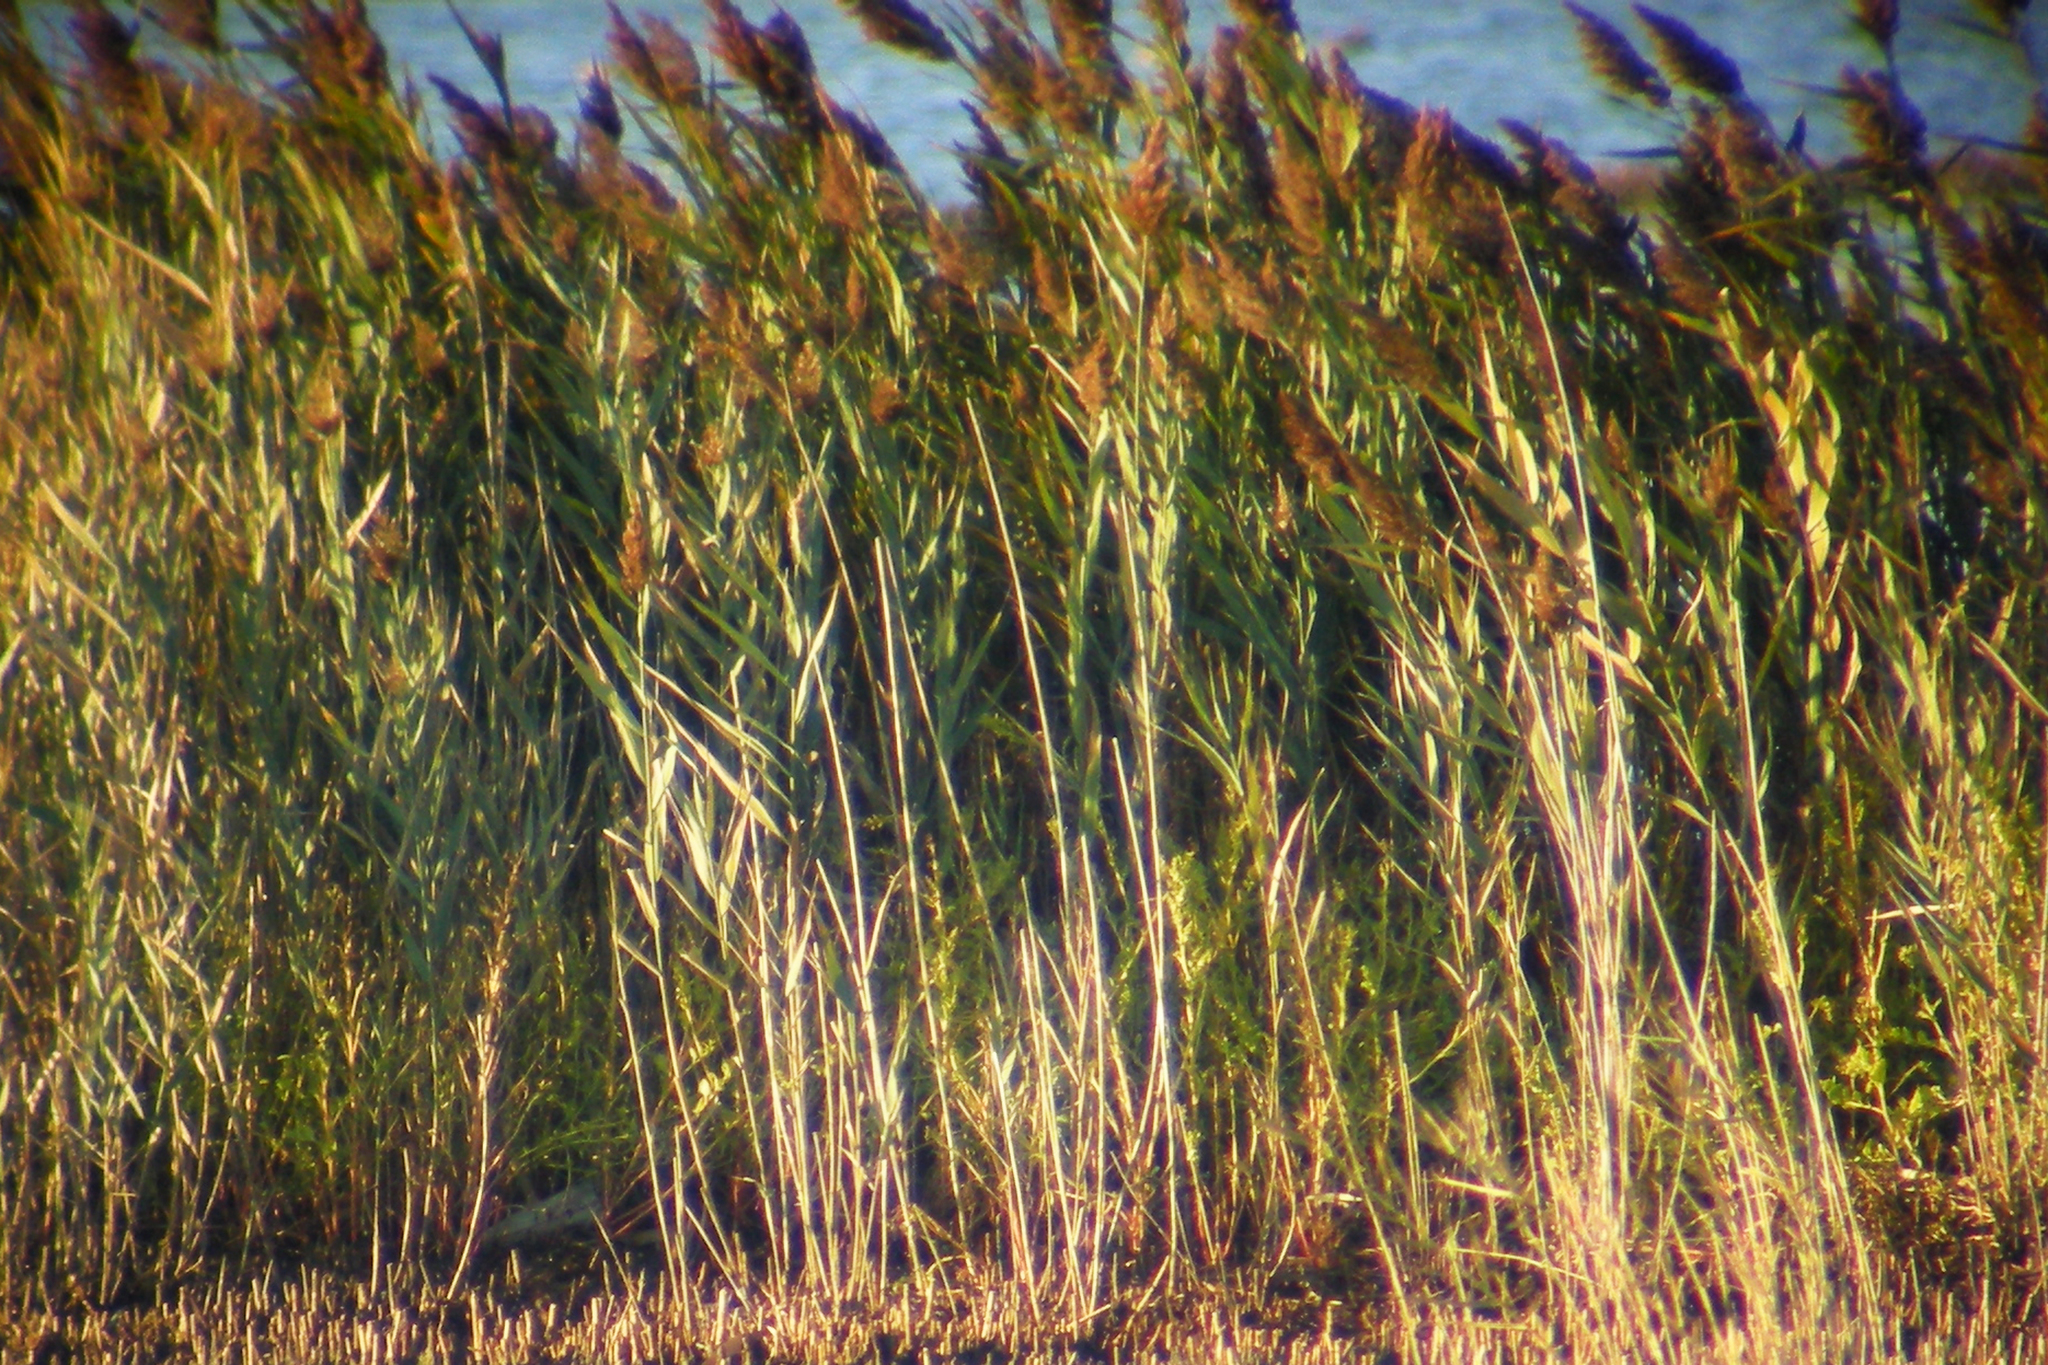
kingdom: Plantae
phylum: Tracheophyta
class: Liliopsida
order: Poales
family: Poaceae
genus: Phragmites
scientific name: Phragmites australis
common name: Common reed
